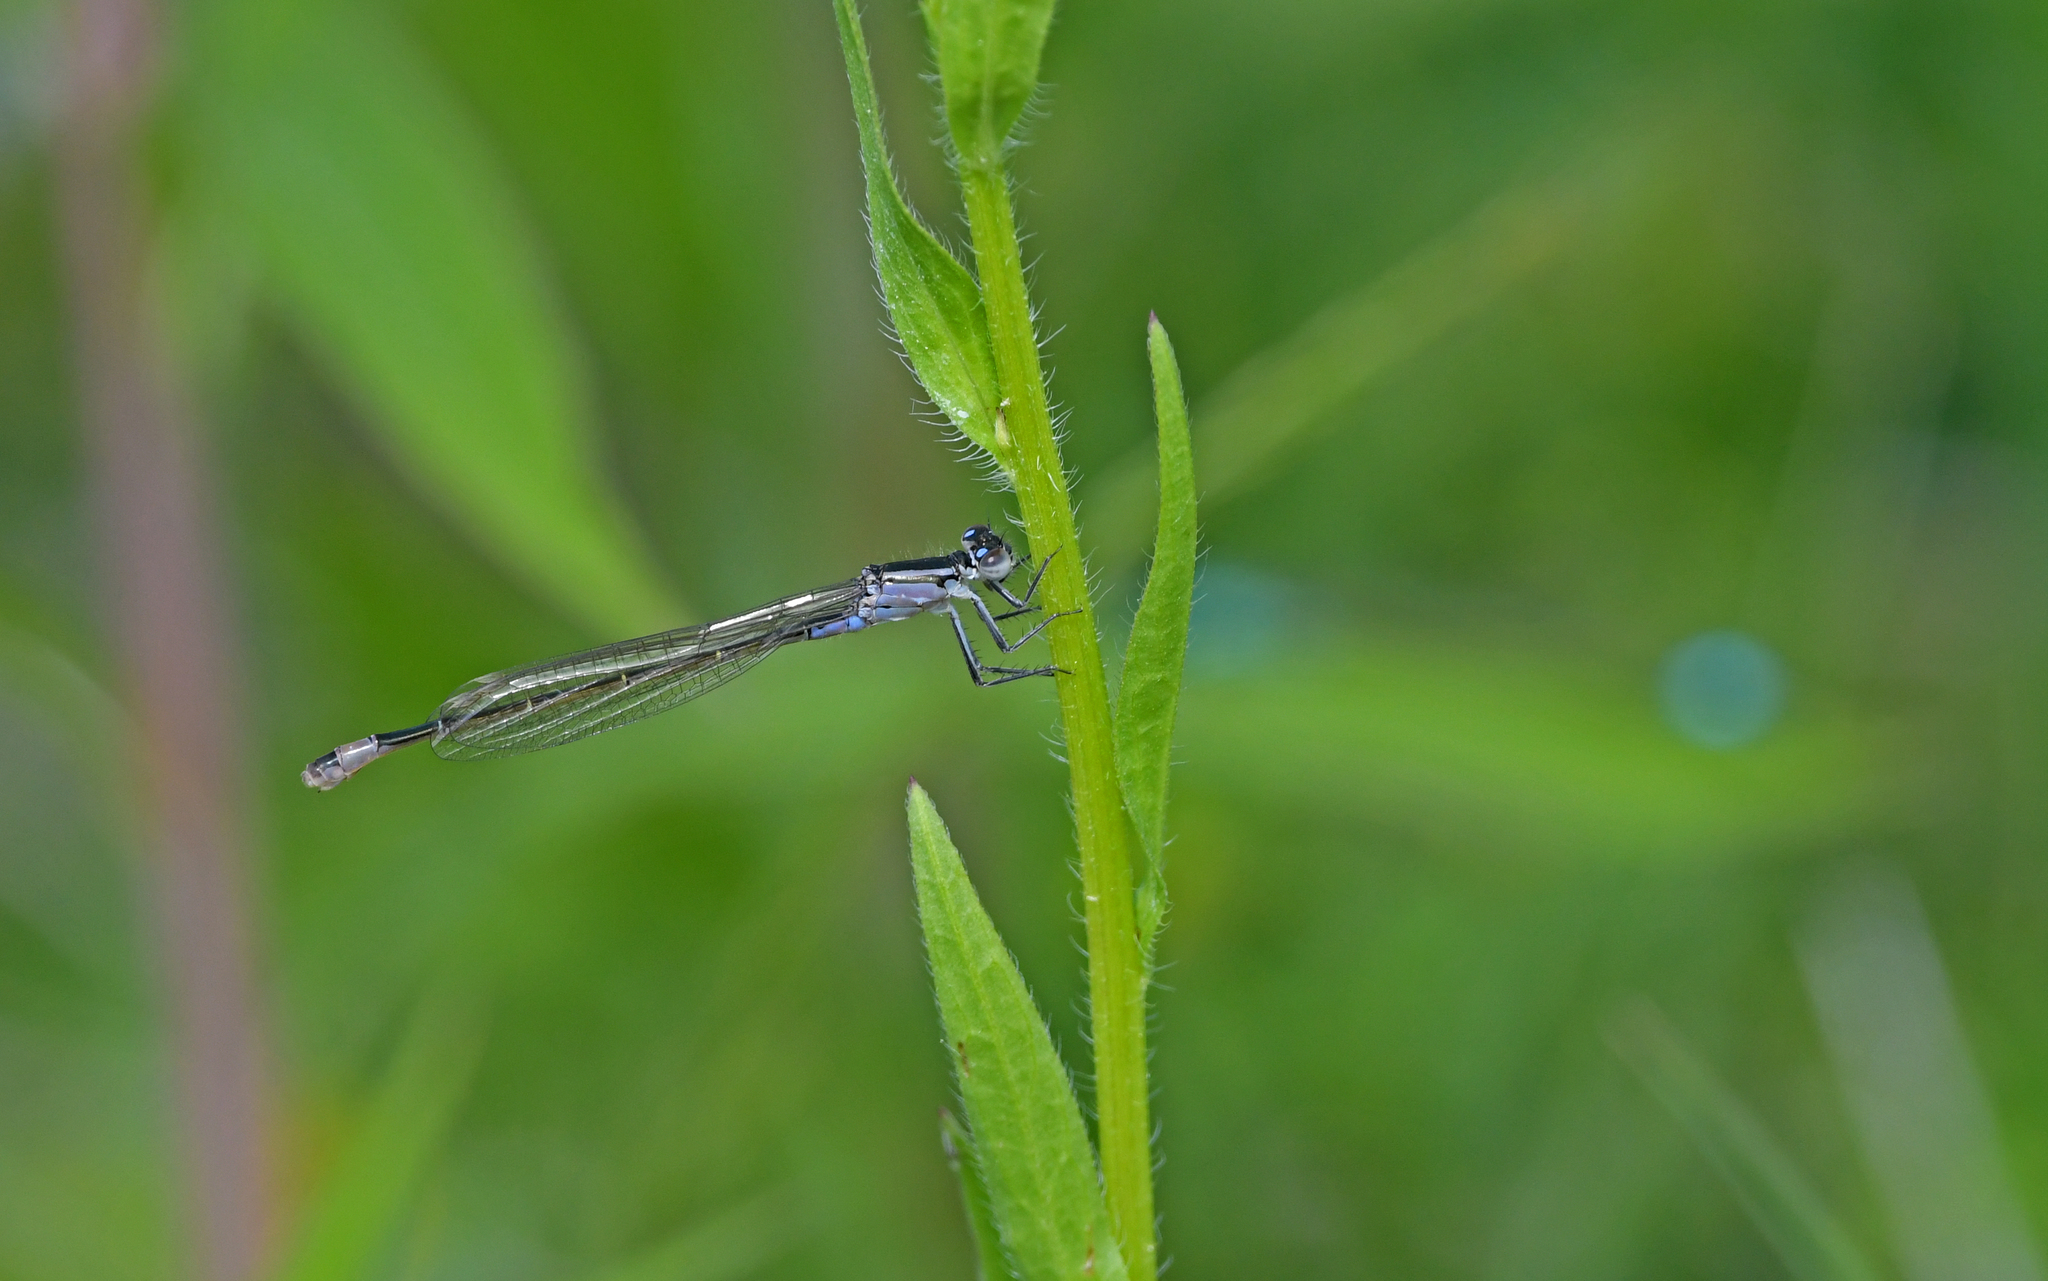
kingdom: Animalia
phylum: Arthropoda
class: Insecta
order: Odonata
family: Coenagrionidae
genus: Ischnura
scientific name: Ischnura elegans
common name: Blue-tailed damselfly
